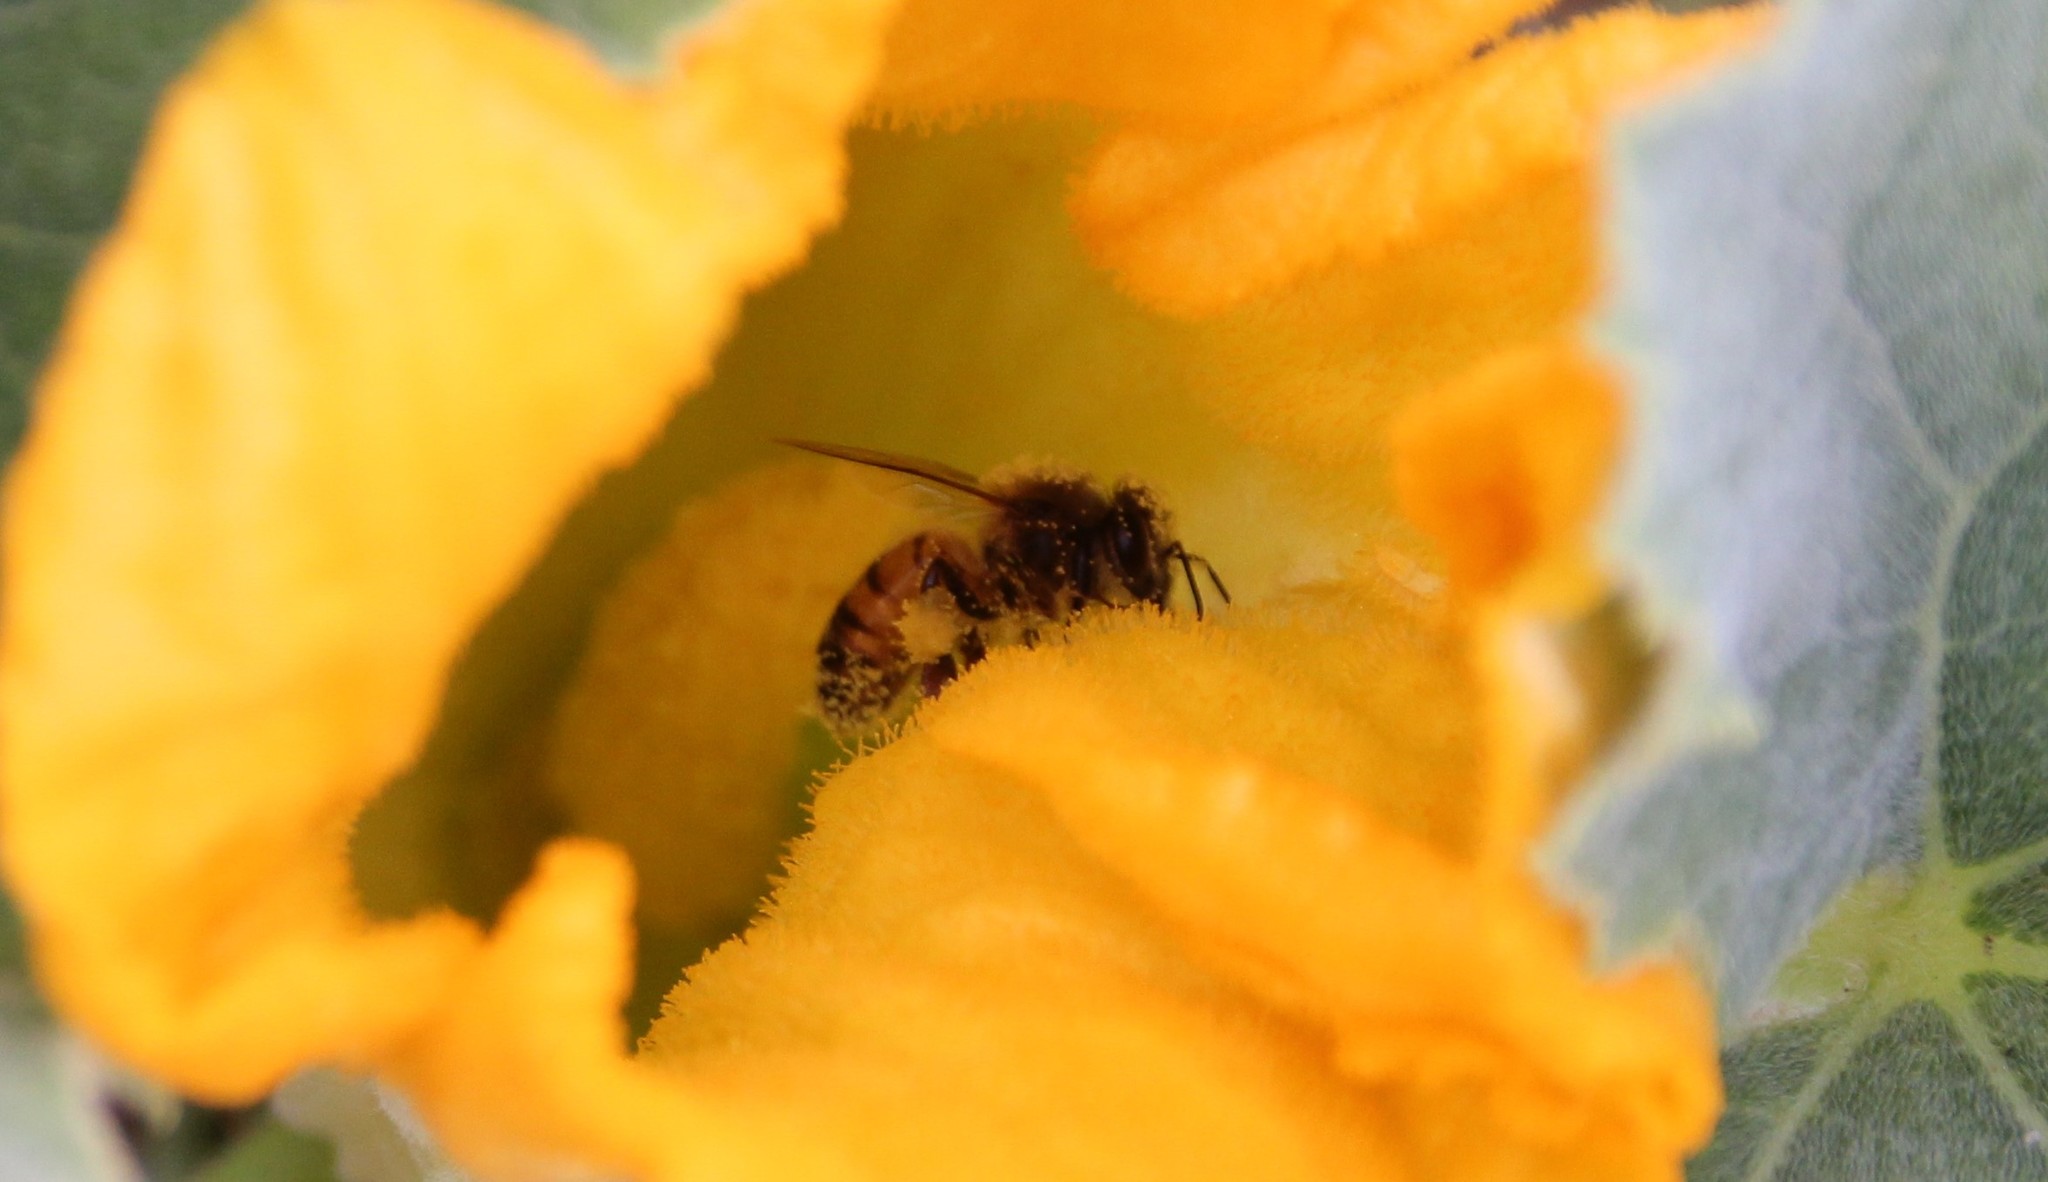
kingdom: Animalia
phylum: Arthropoda
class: Insecta
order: Hymenoptera
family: Apidae
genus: Apis
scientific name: Apis mellifera
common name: Honey bee
